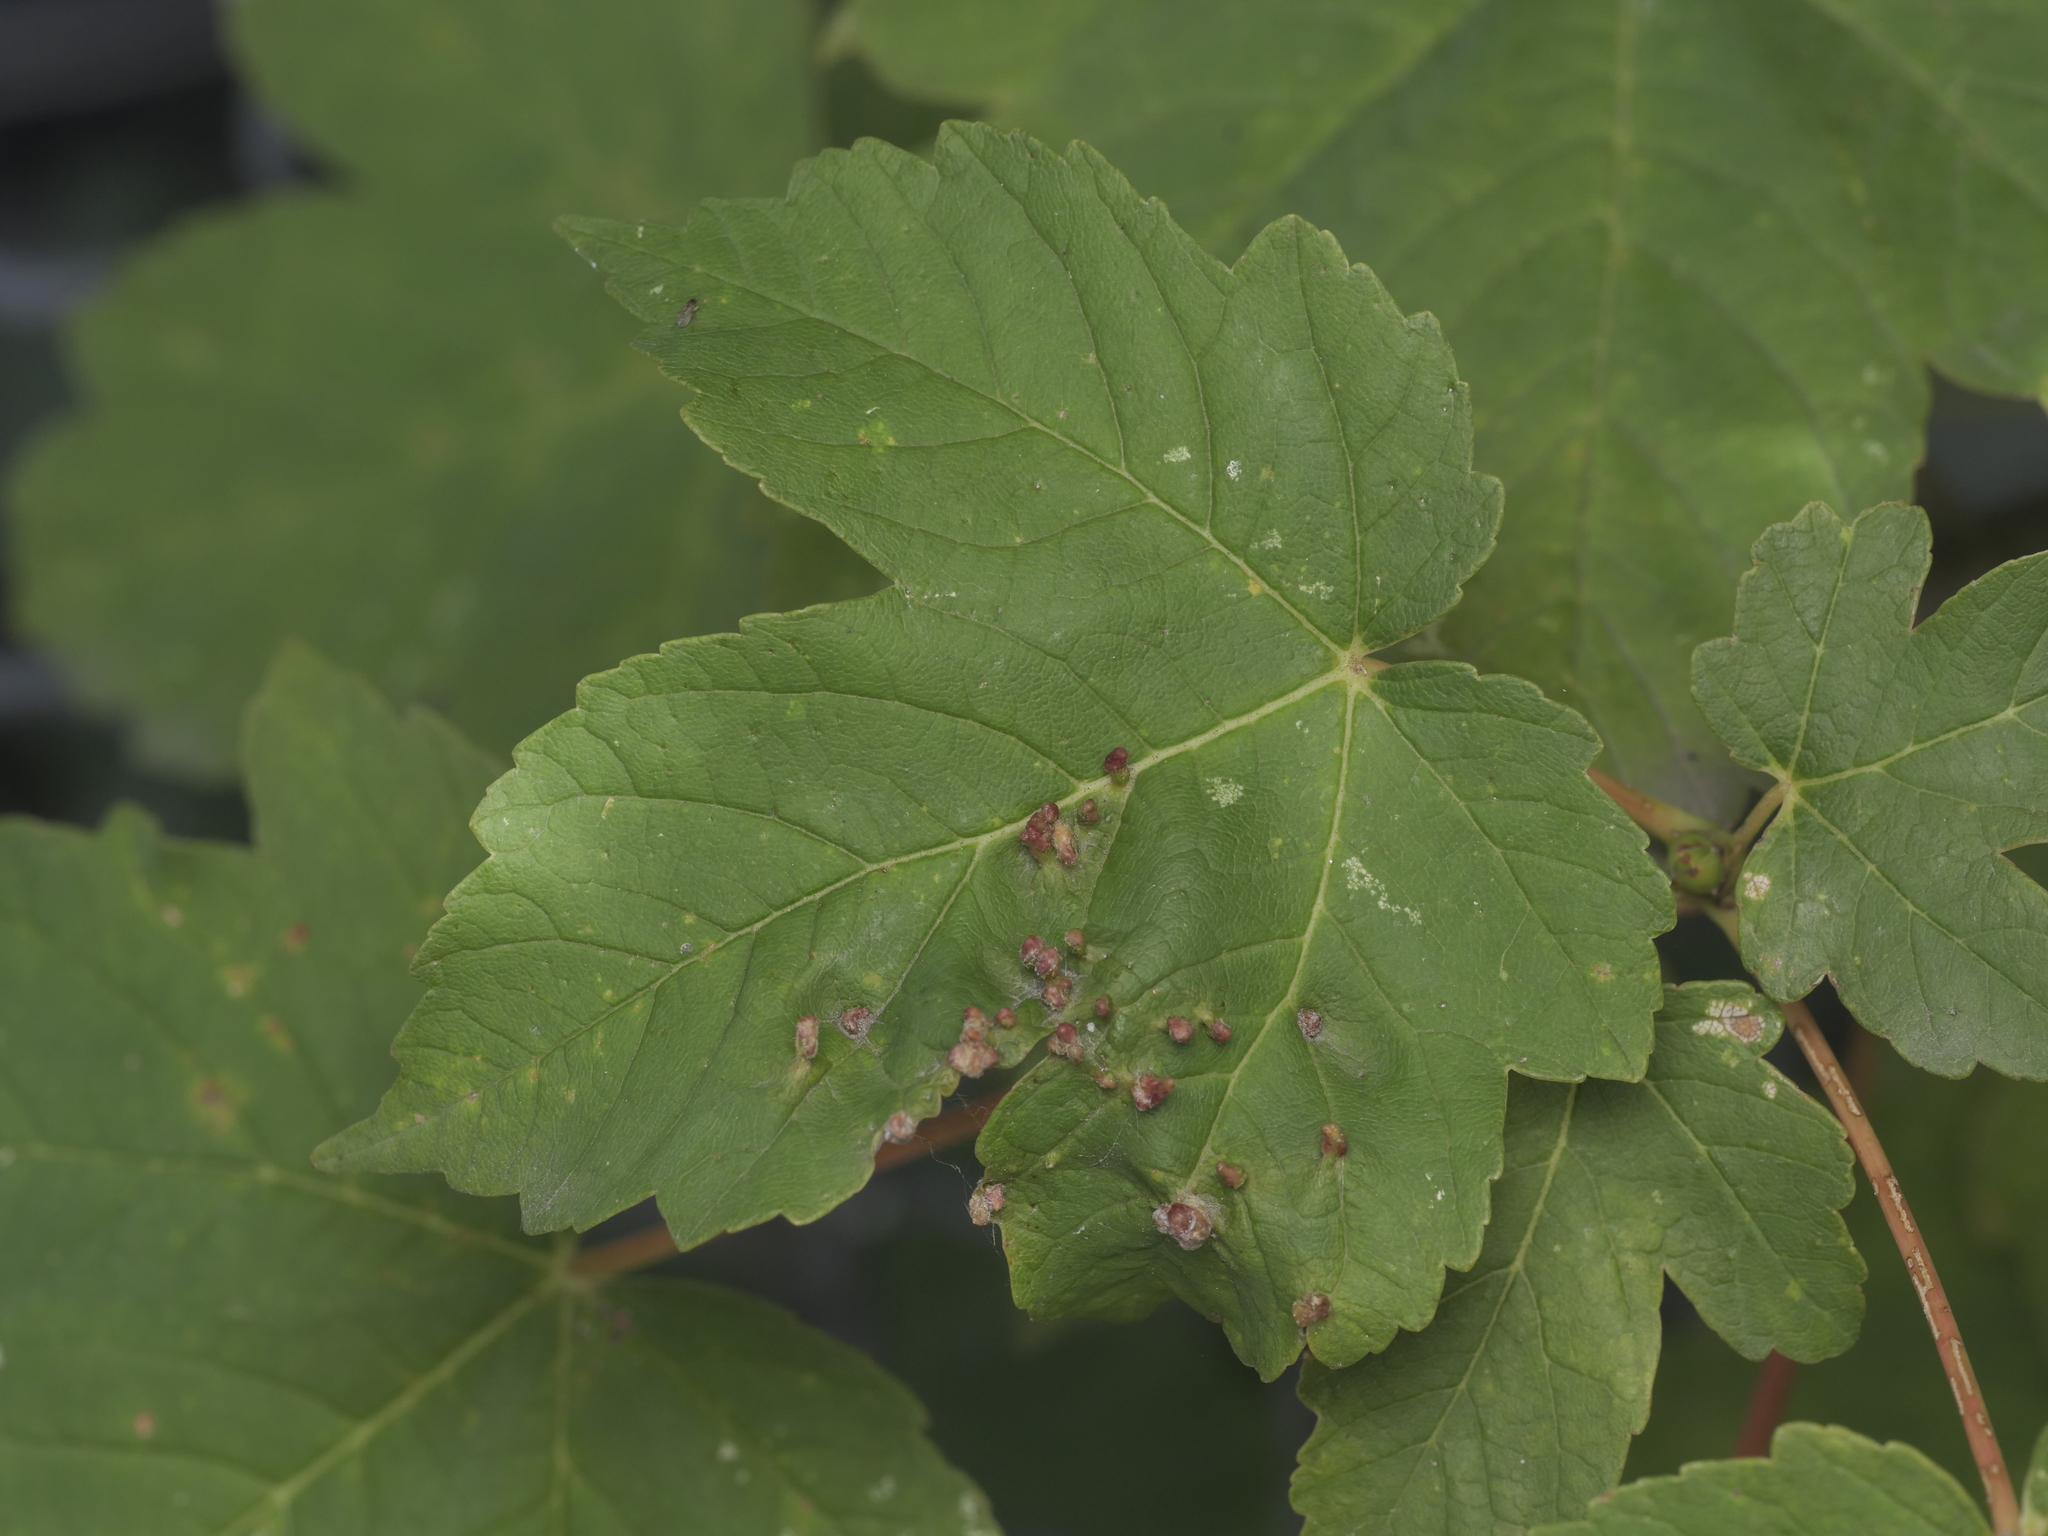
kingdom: Plantae
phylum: Tracheophyta
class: Magnoliopsida
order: Sapindales
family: Sapindaceae
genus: Acer
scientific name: Acer pseudoplatanus
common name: Sycamore
